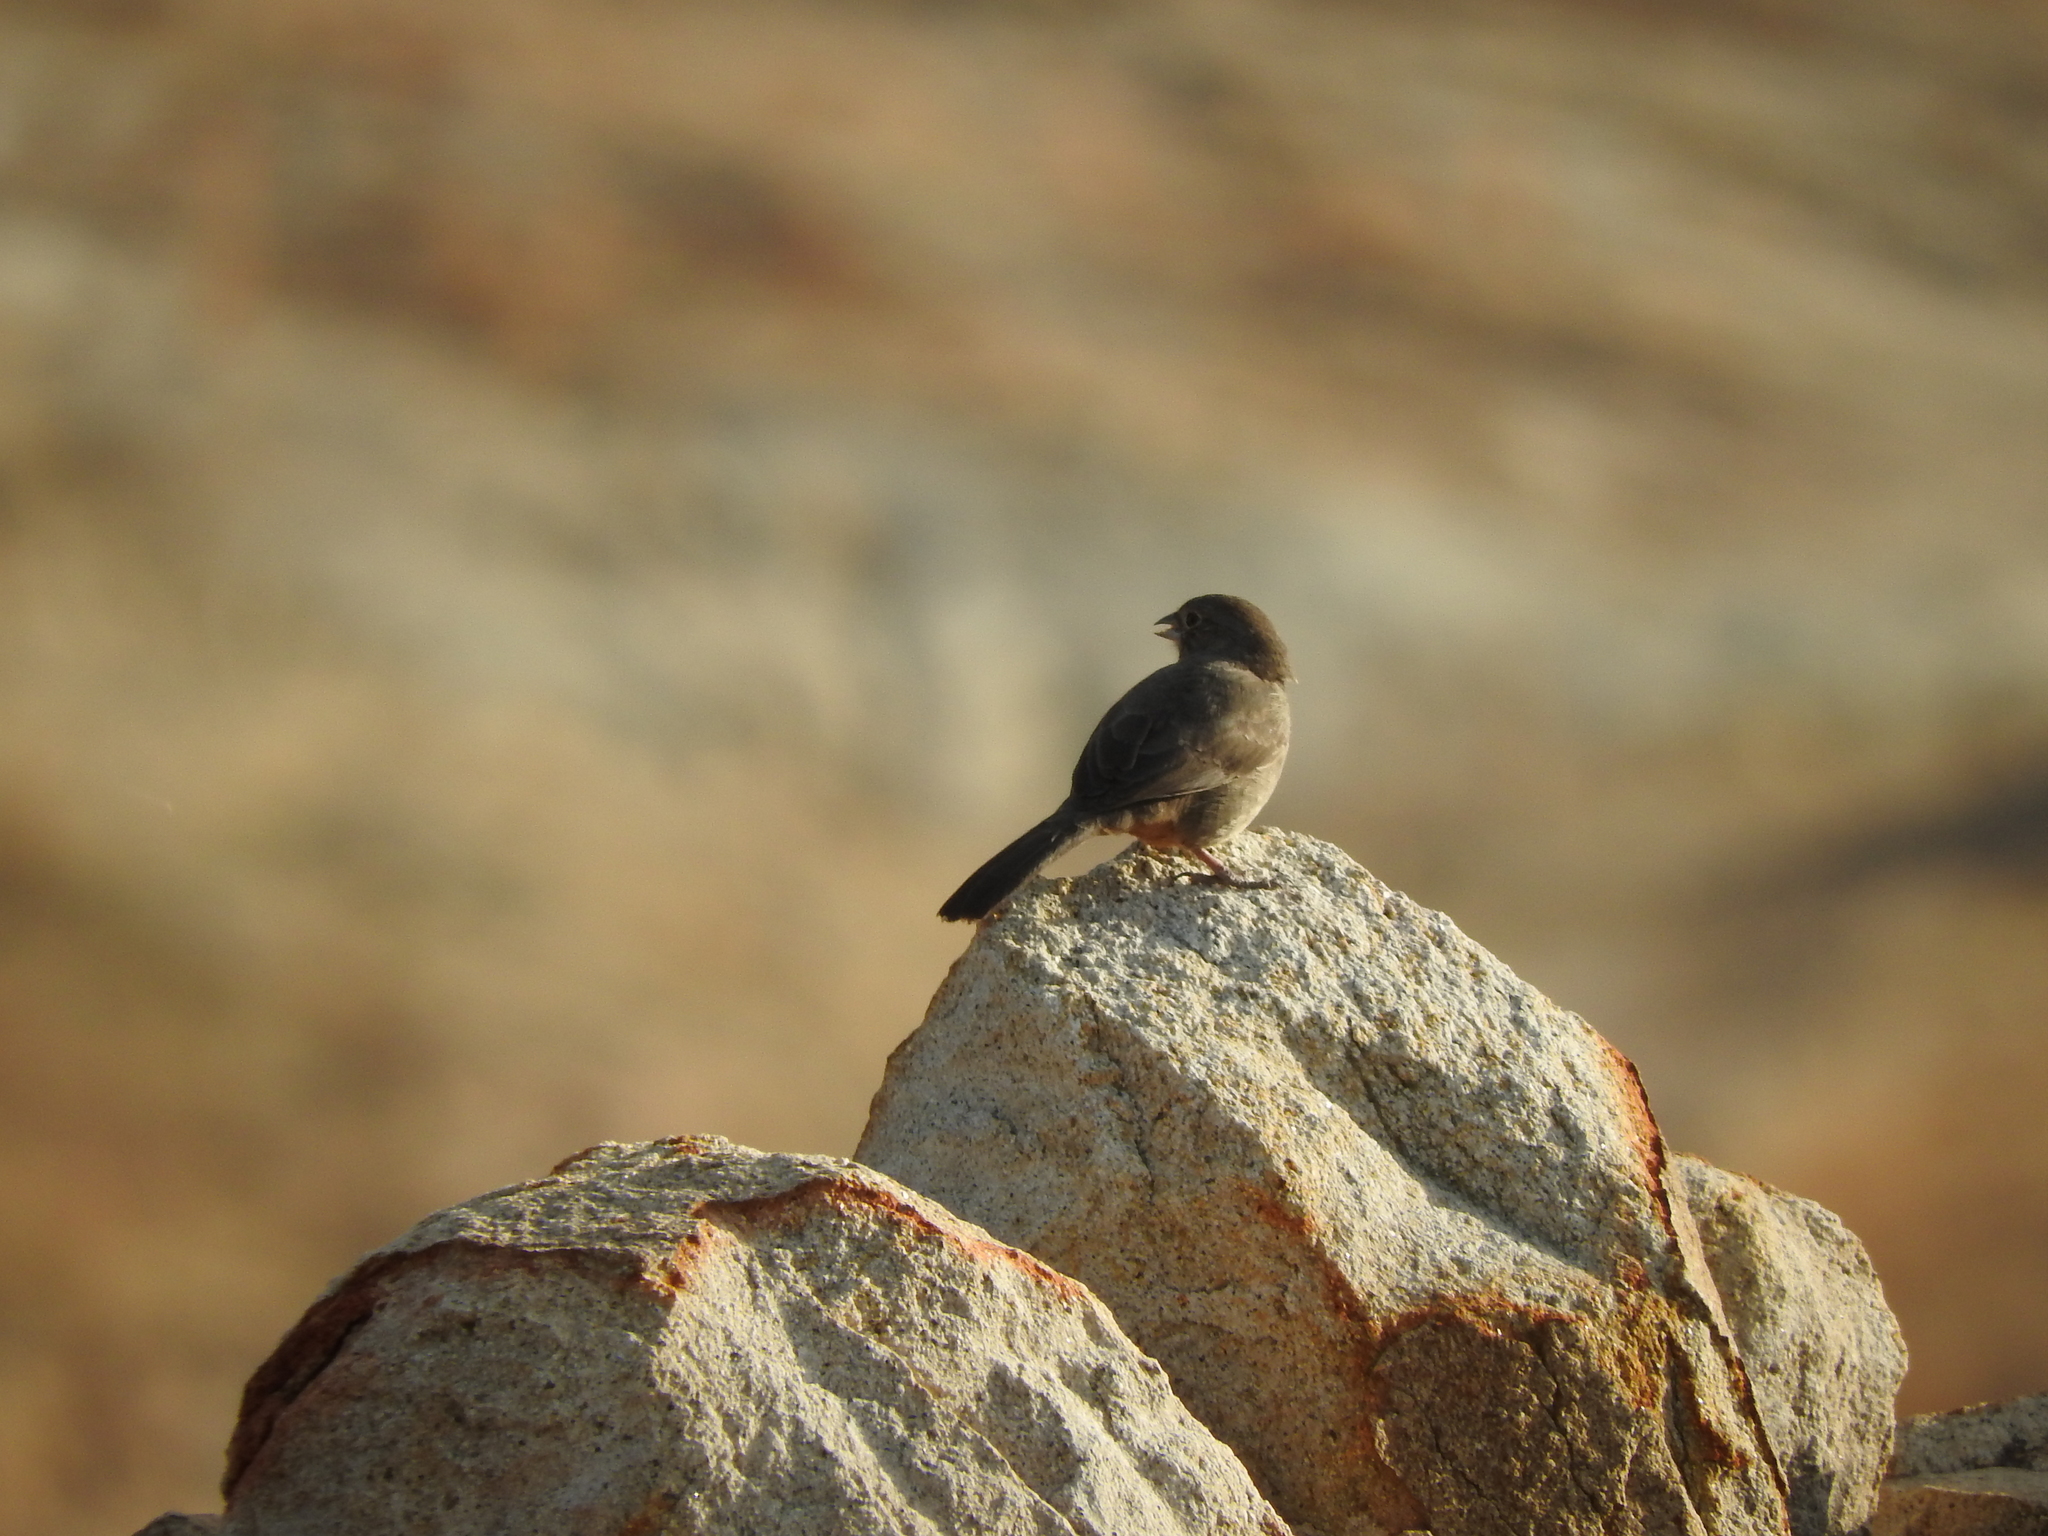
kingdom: Animalia
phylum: Chordata
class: Aves
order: Passeriformes
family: Passerellidae
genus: Melozone
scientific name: Melozone fusca
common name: Canyon towhee
